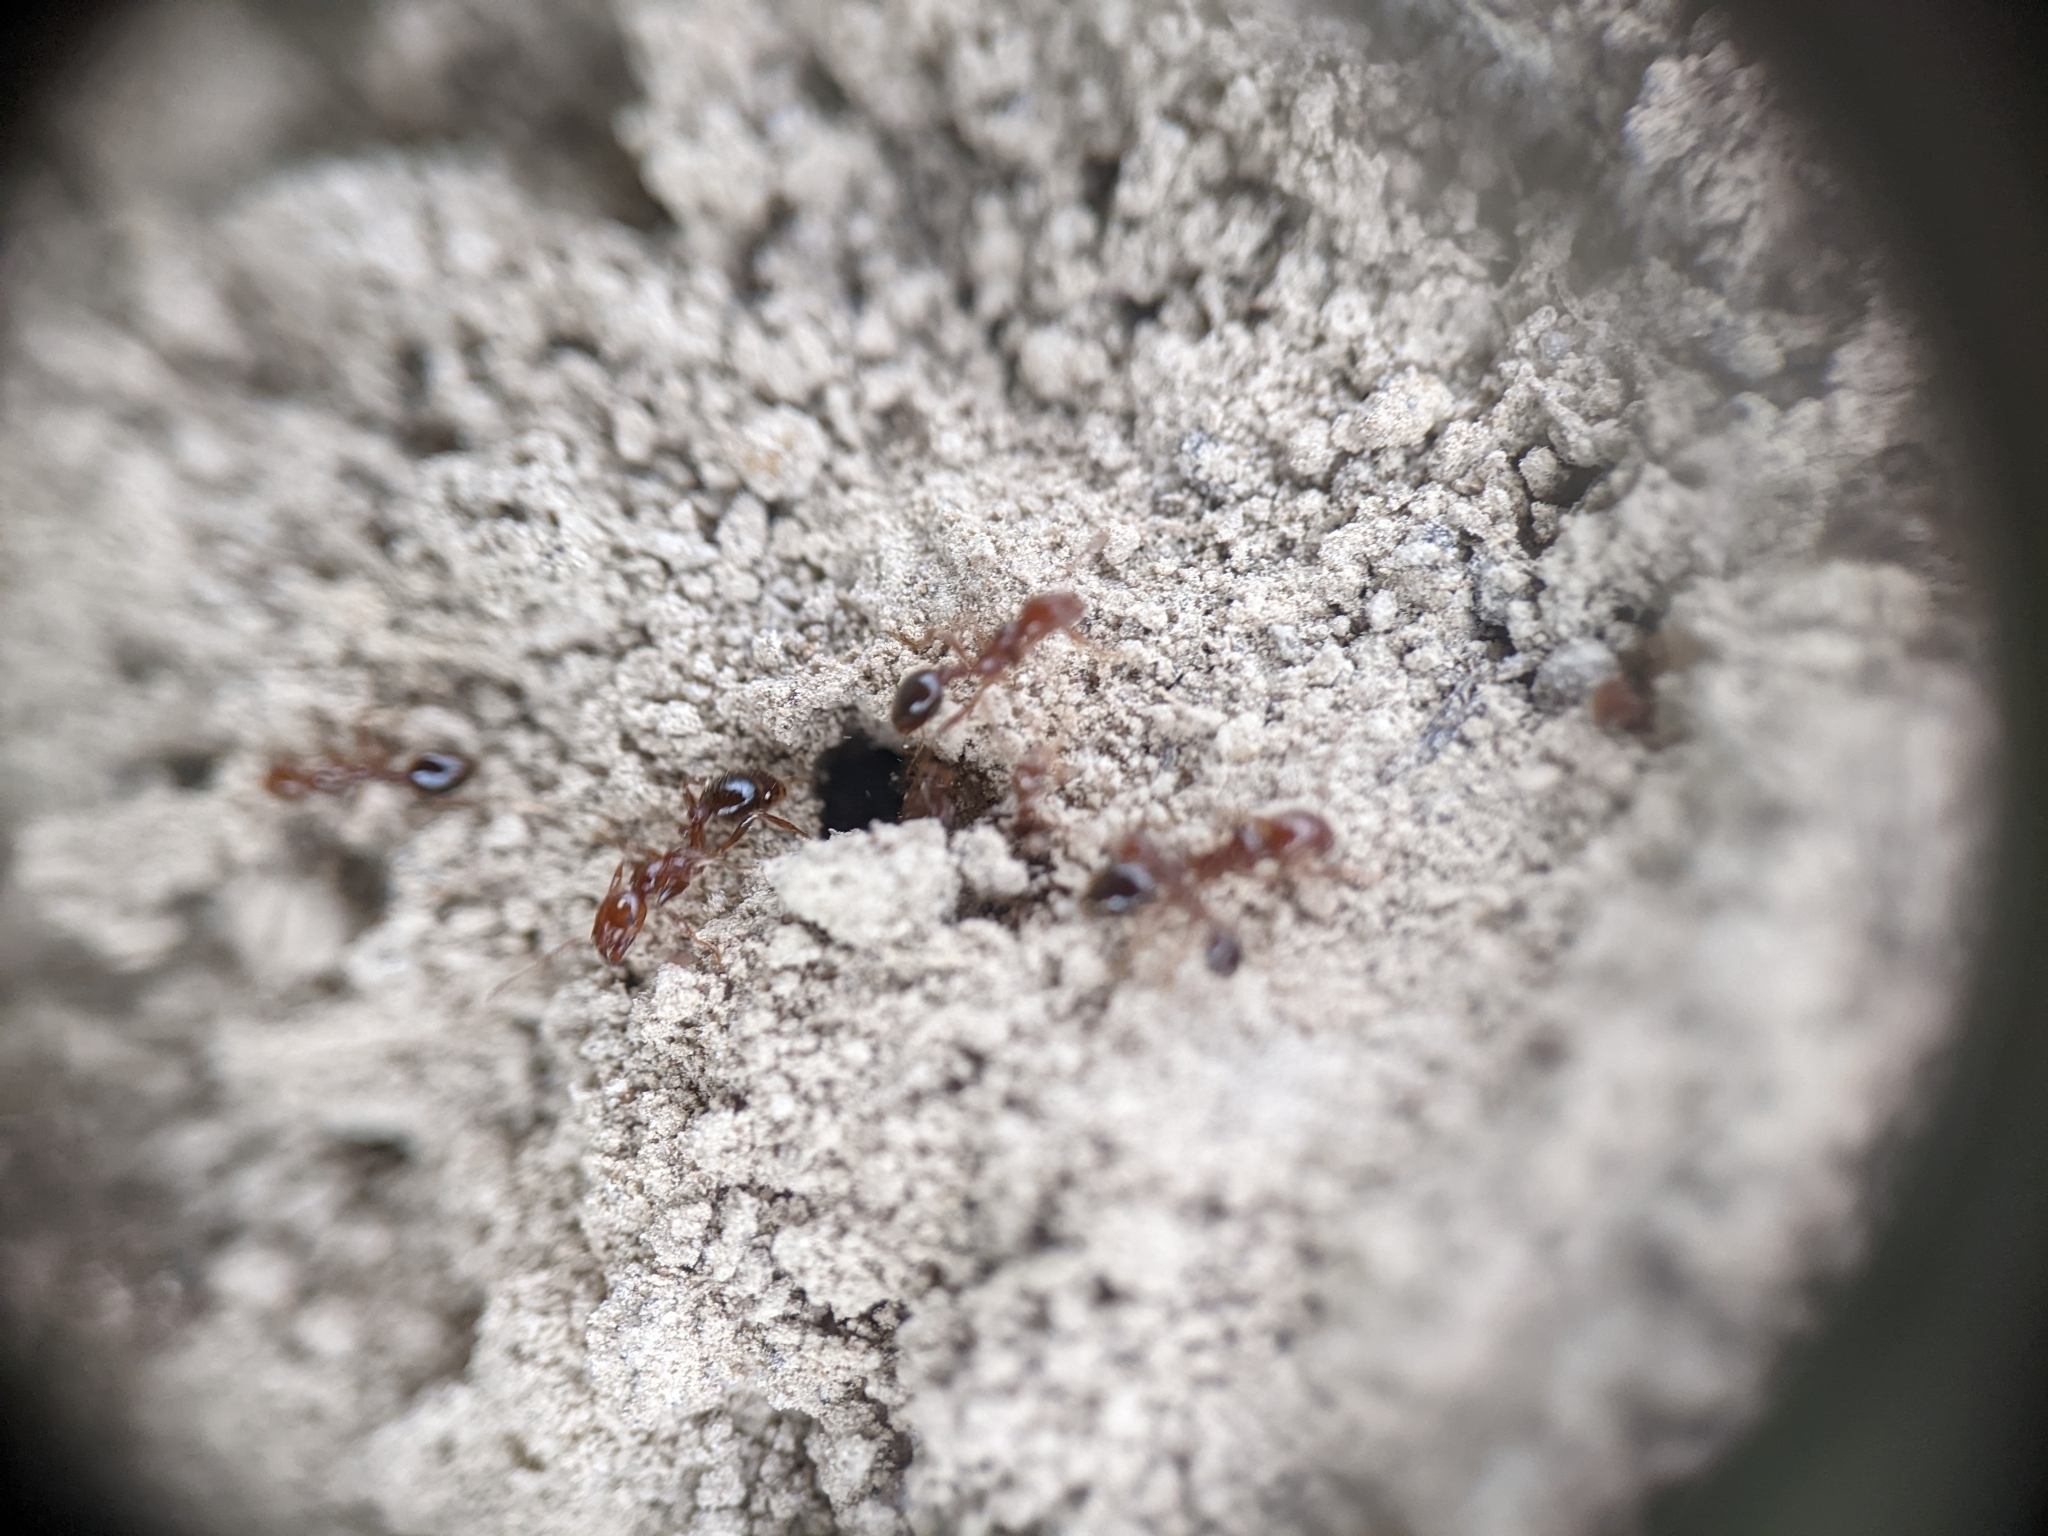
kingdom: Animalia
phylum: Arthropoda
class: Insecta
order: Hymenoptera
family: Formicidae
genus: Solenopsis
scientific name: Solenopsis invicta
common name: Red imported fire ant
